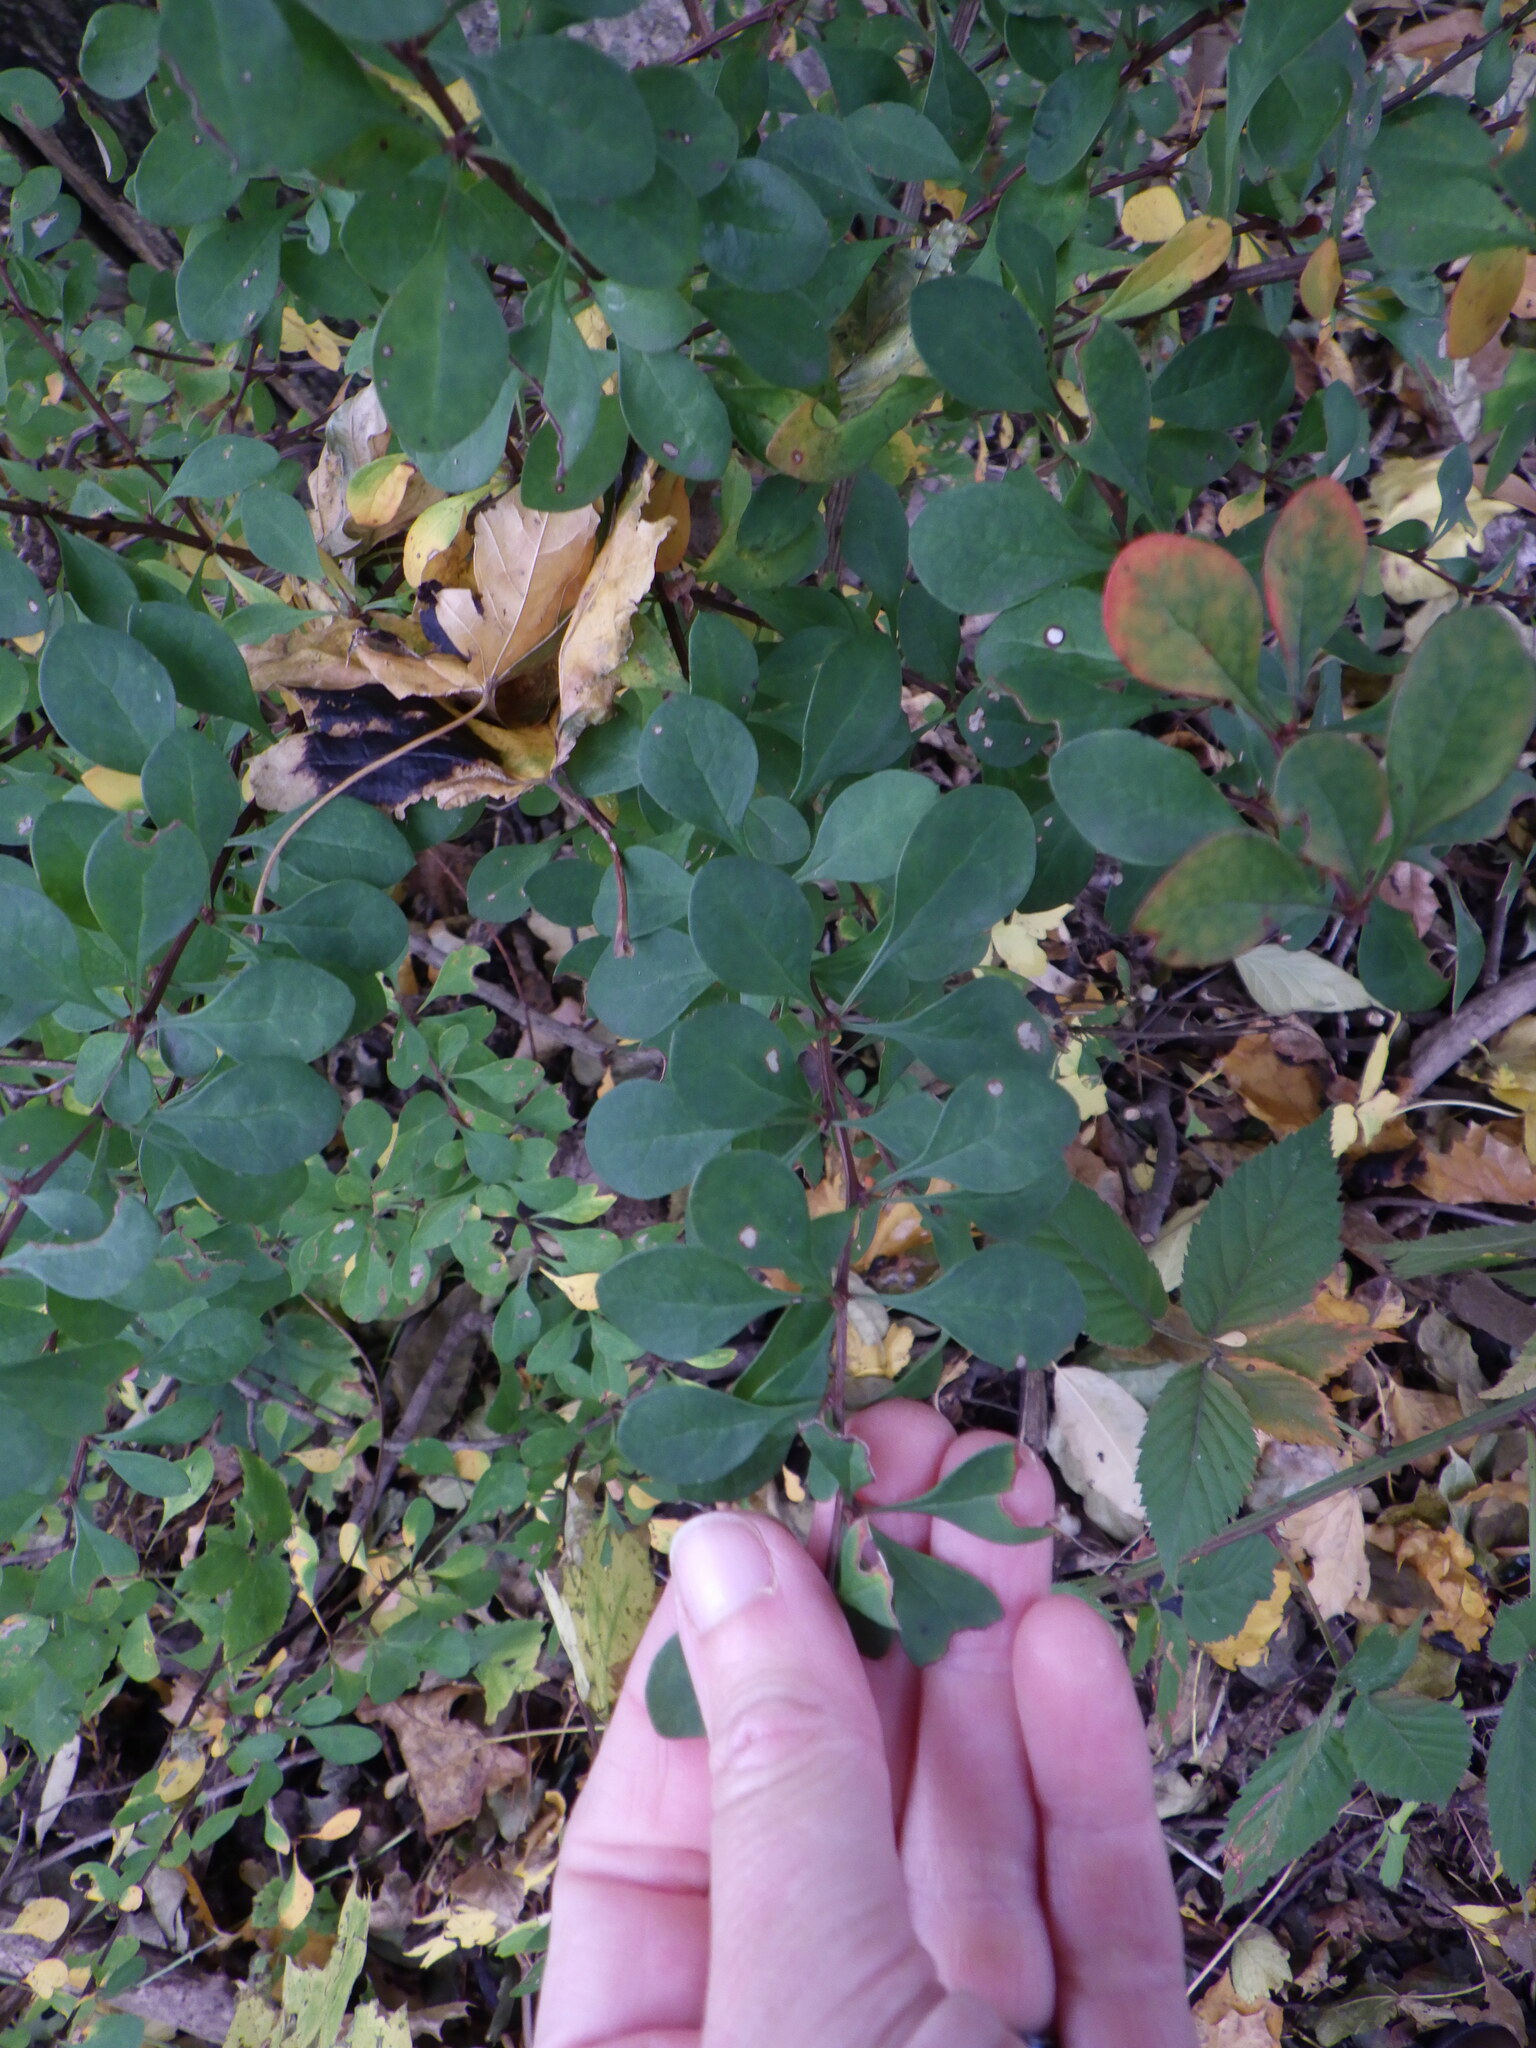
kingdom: Plantae
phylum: Tracheophyta
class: Magnoliopsida
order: Ranunculales
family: Berberidaceae
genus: Berberis
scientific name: Berberis thunbergii
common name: Japanese barberry
